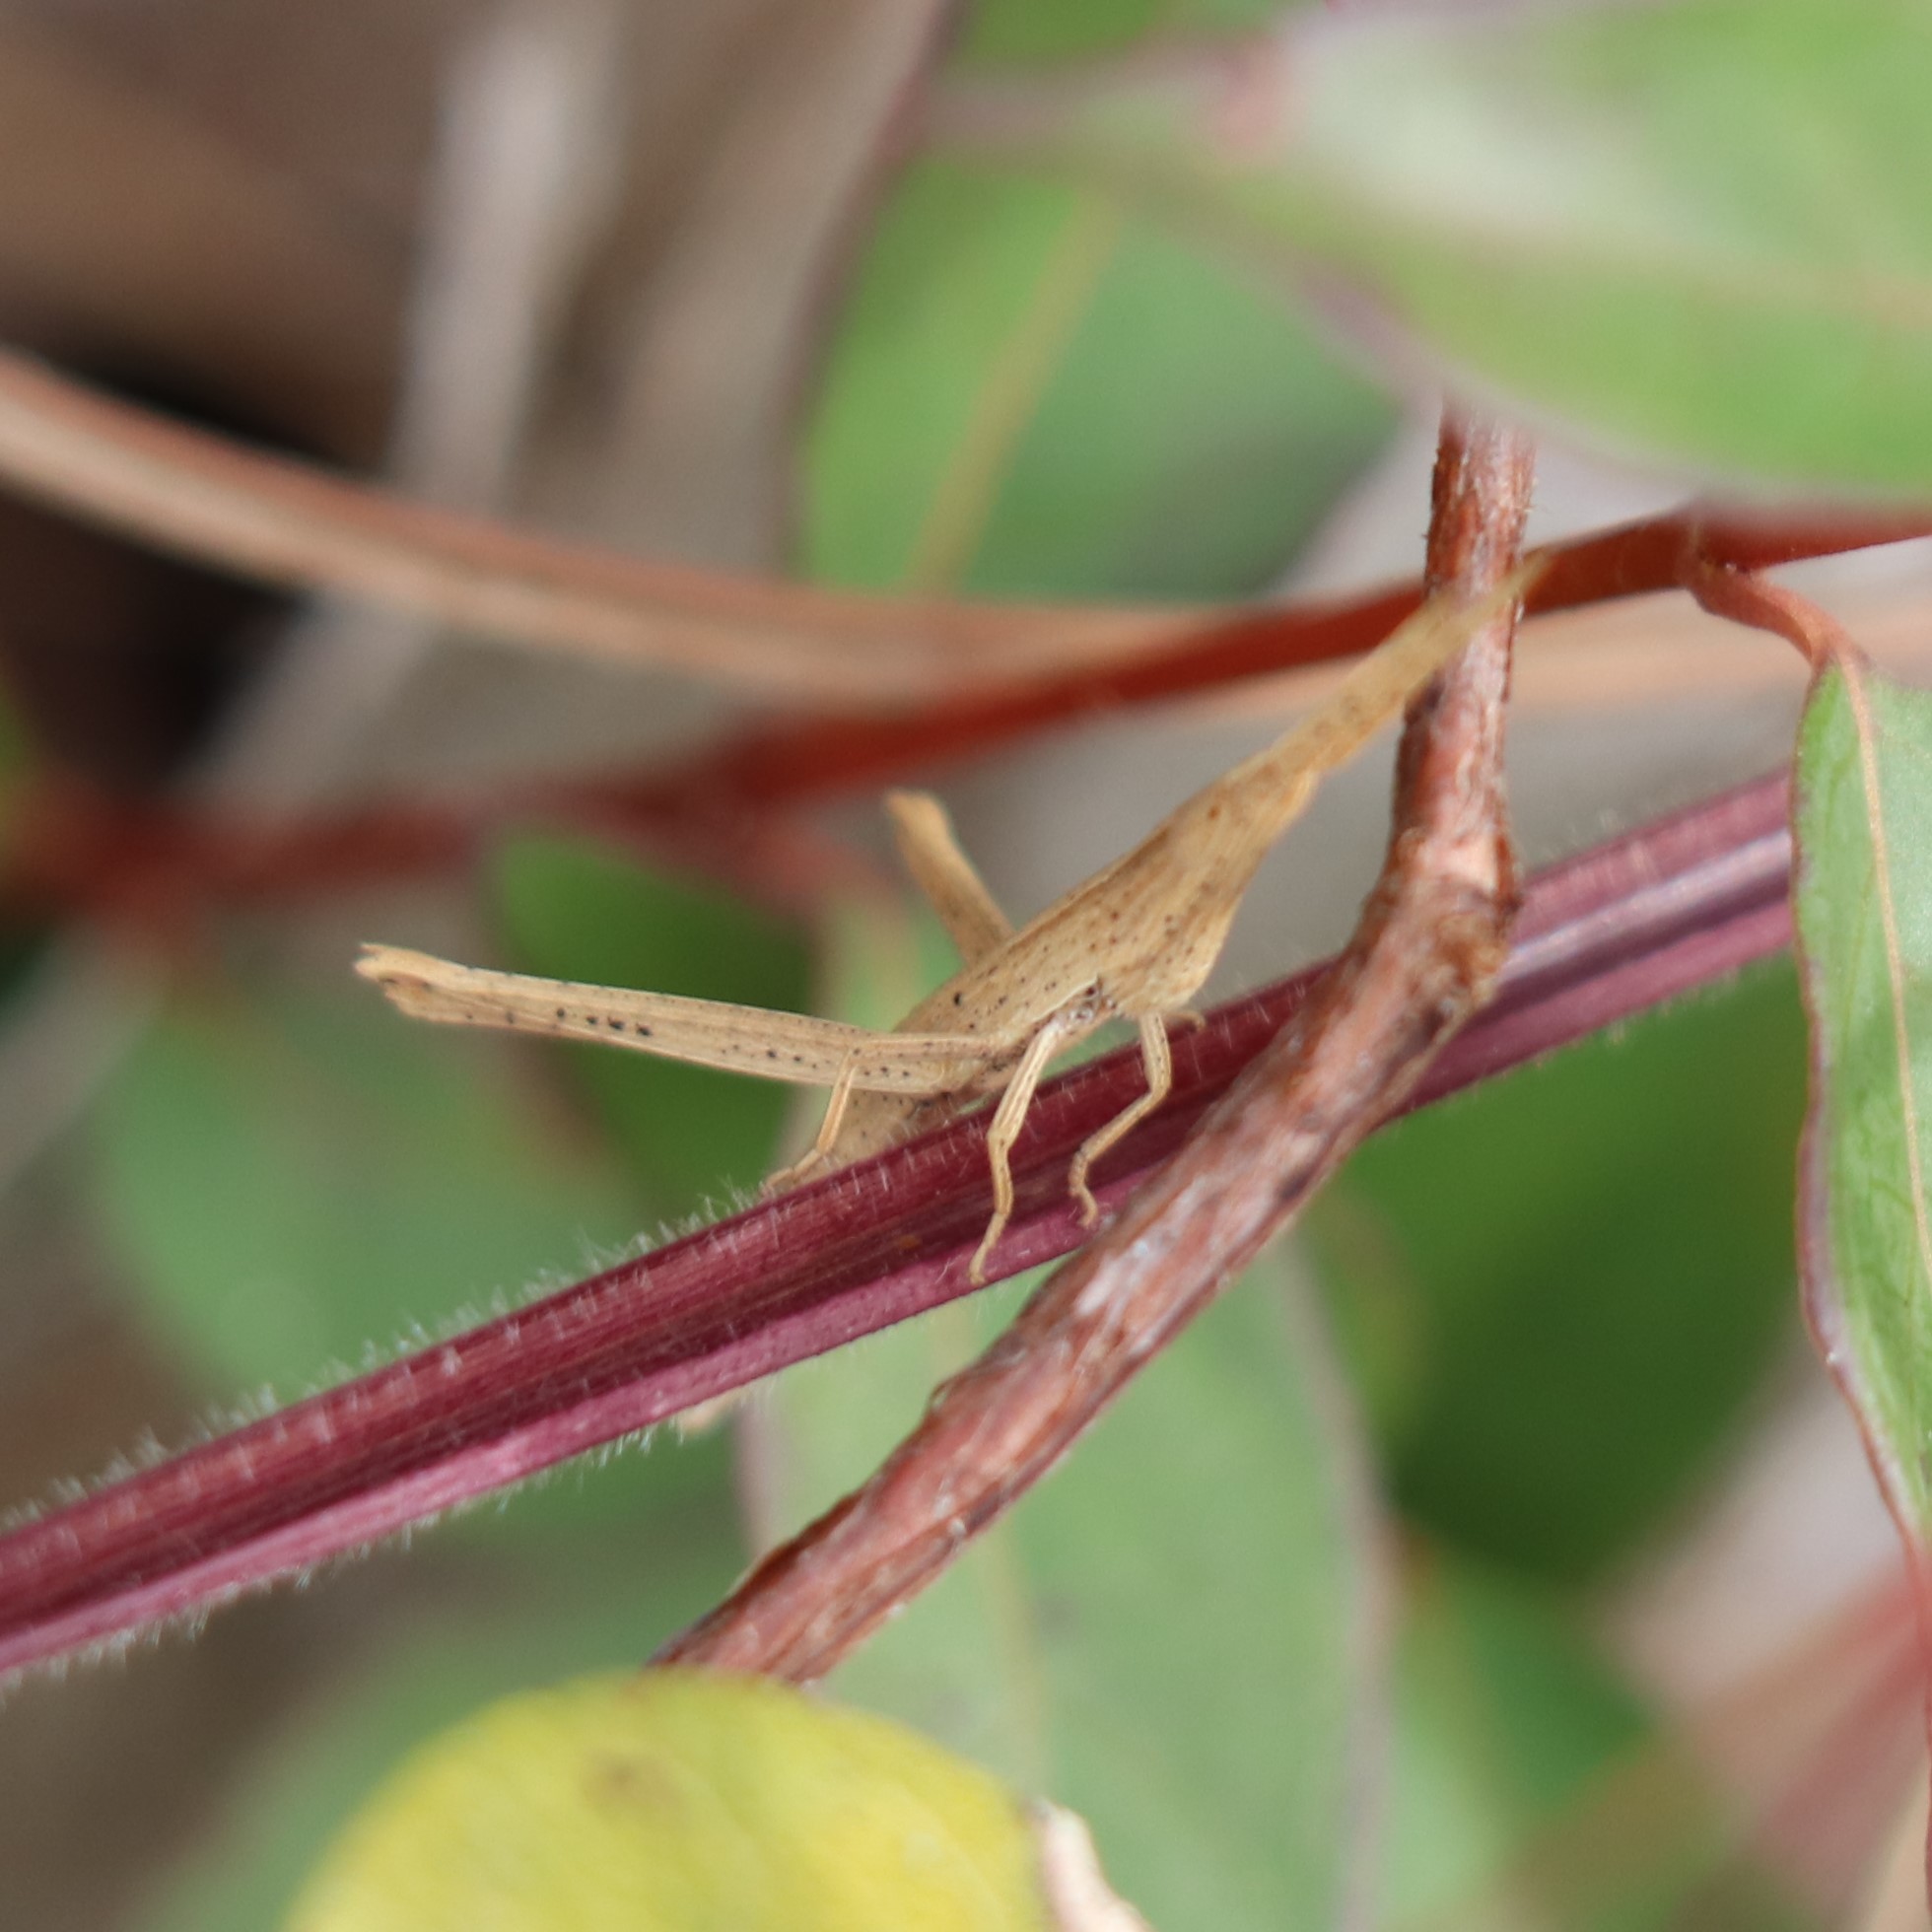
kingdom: Animalia
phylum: Arthropoda
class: Insecta
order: Orthoptera
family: Acrididae
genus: Achurum
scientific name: Achurum carinatum
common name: Long-headed toothpick grasshopper
